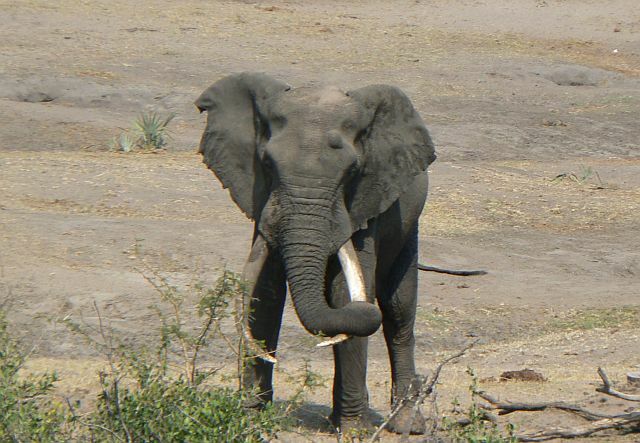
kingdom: Animalia
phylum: Chordata
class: Mammalia
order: Proboscidea
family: Elephantidae
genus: Loxodonta
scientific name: Loxodonta africana
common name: African elephant
